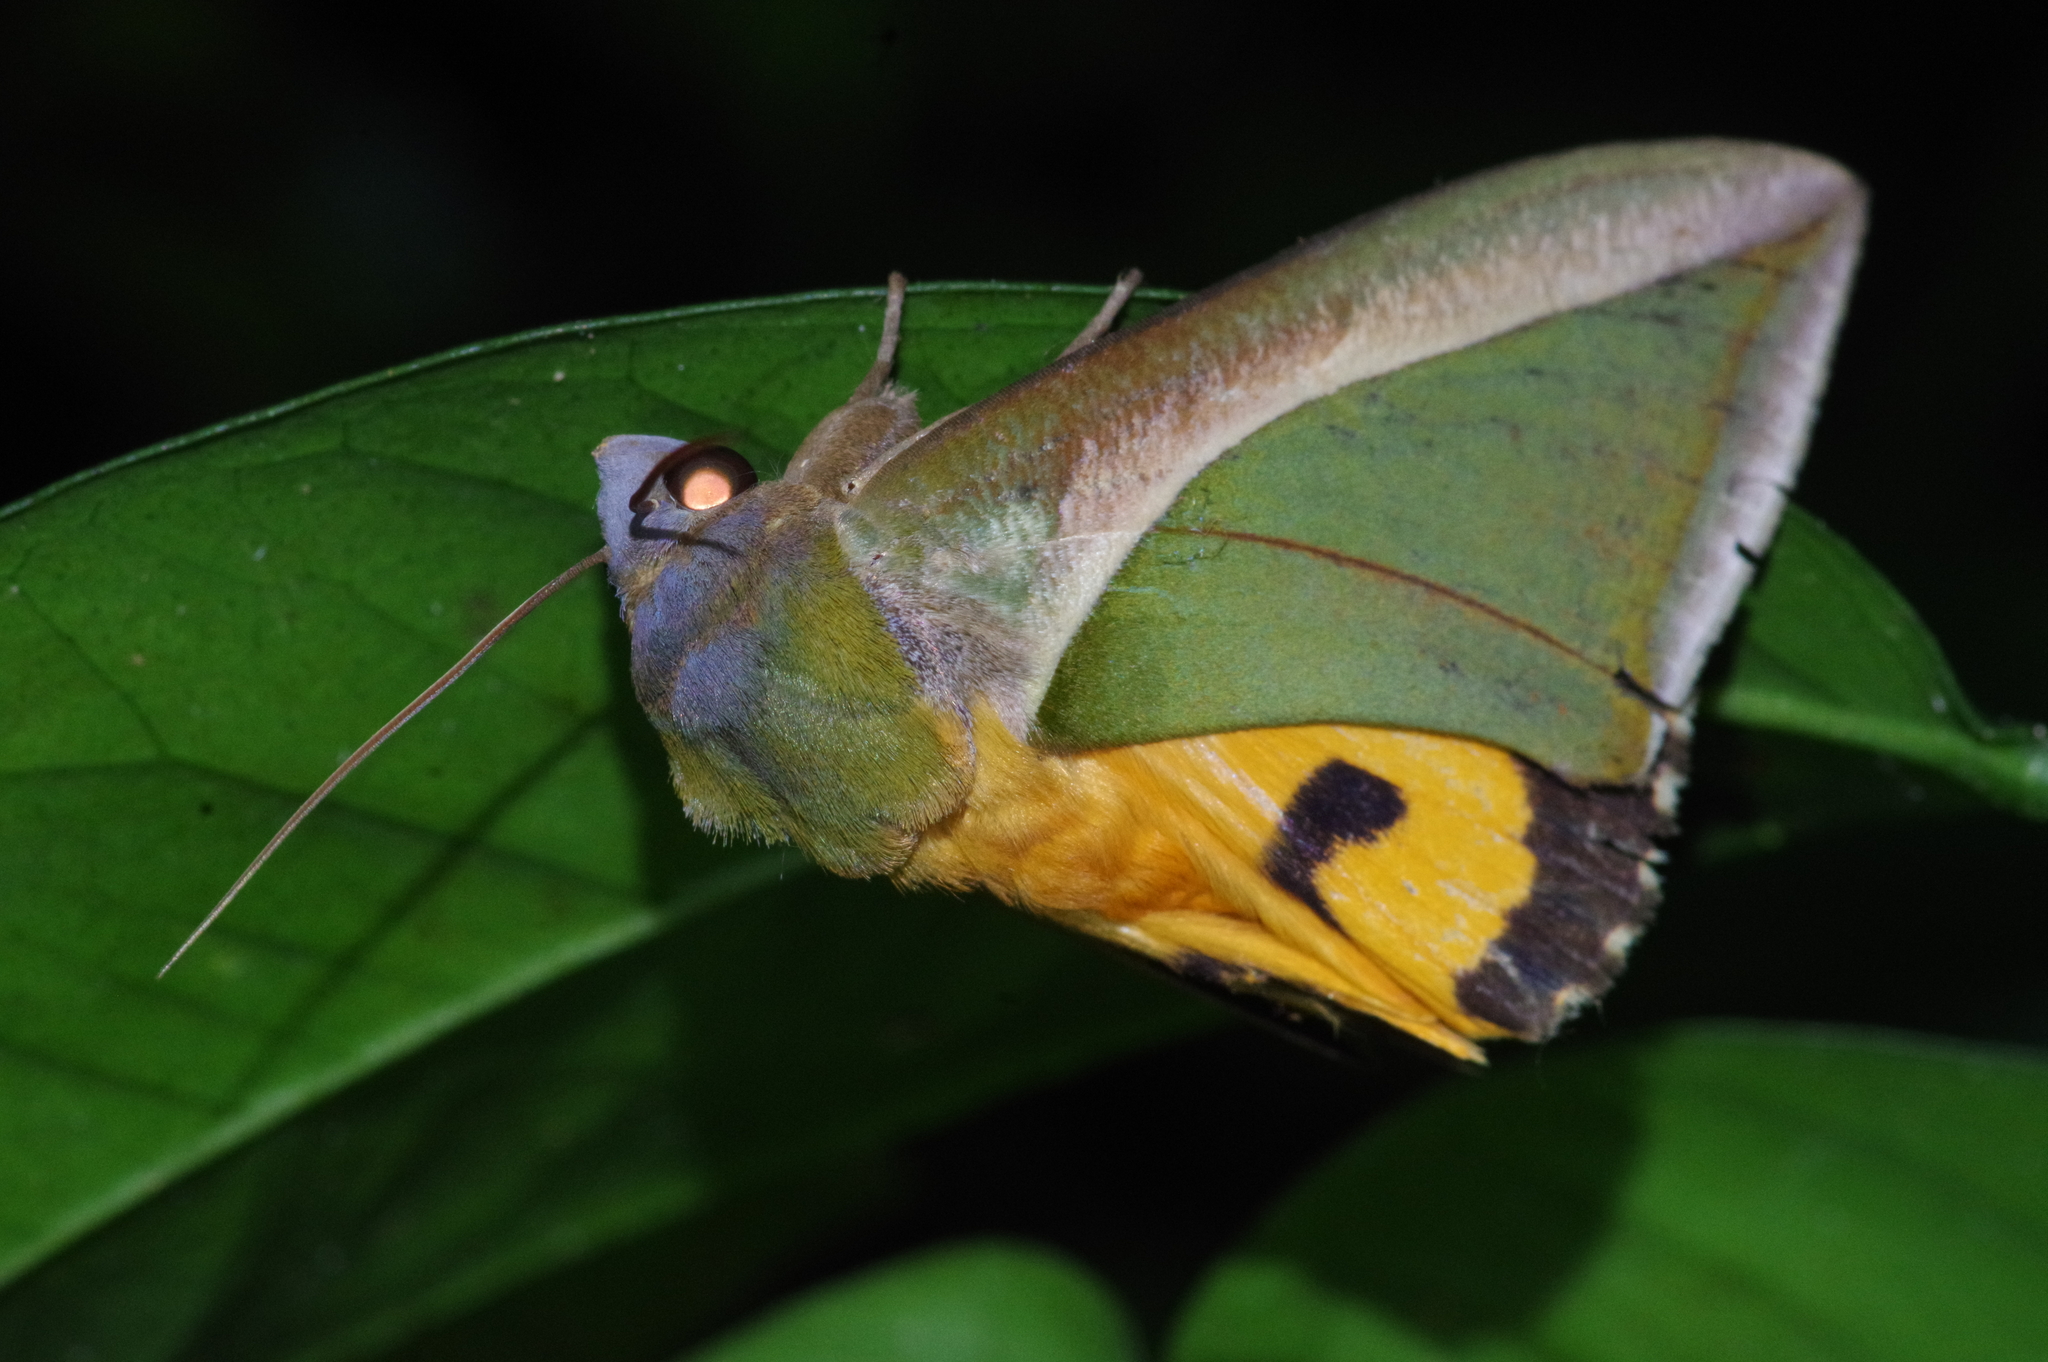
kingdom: Animalia
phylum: Arthropoda
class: Insecta
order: Lepidoptera
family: Erebidae
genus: Eudocima
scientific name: Eudocima salaminia
